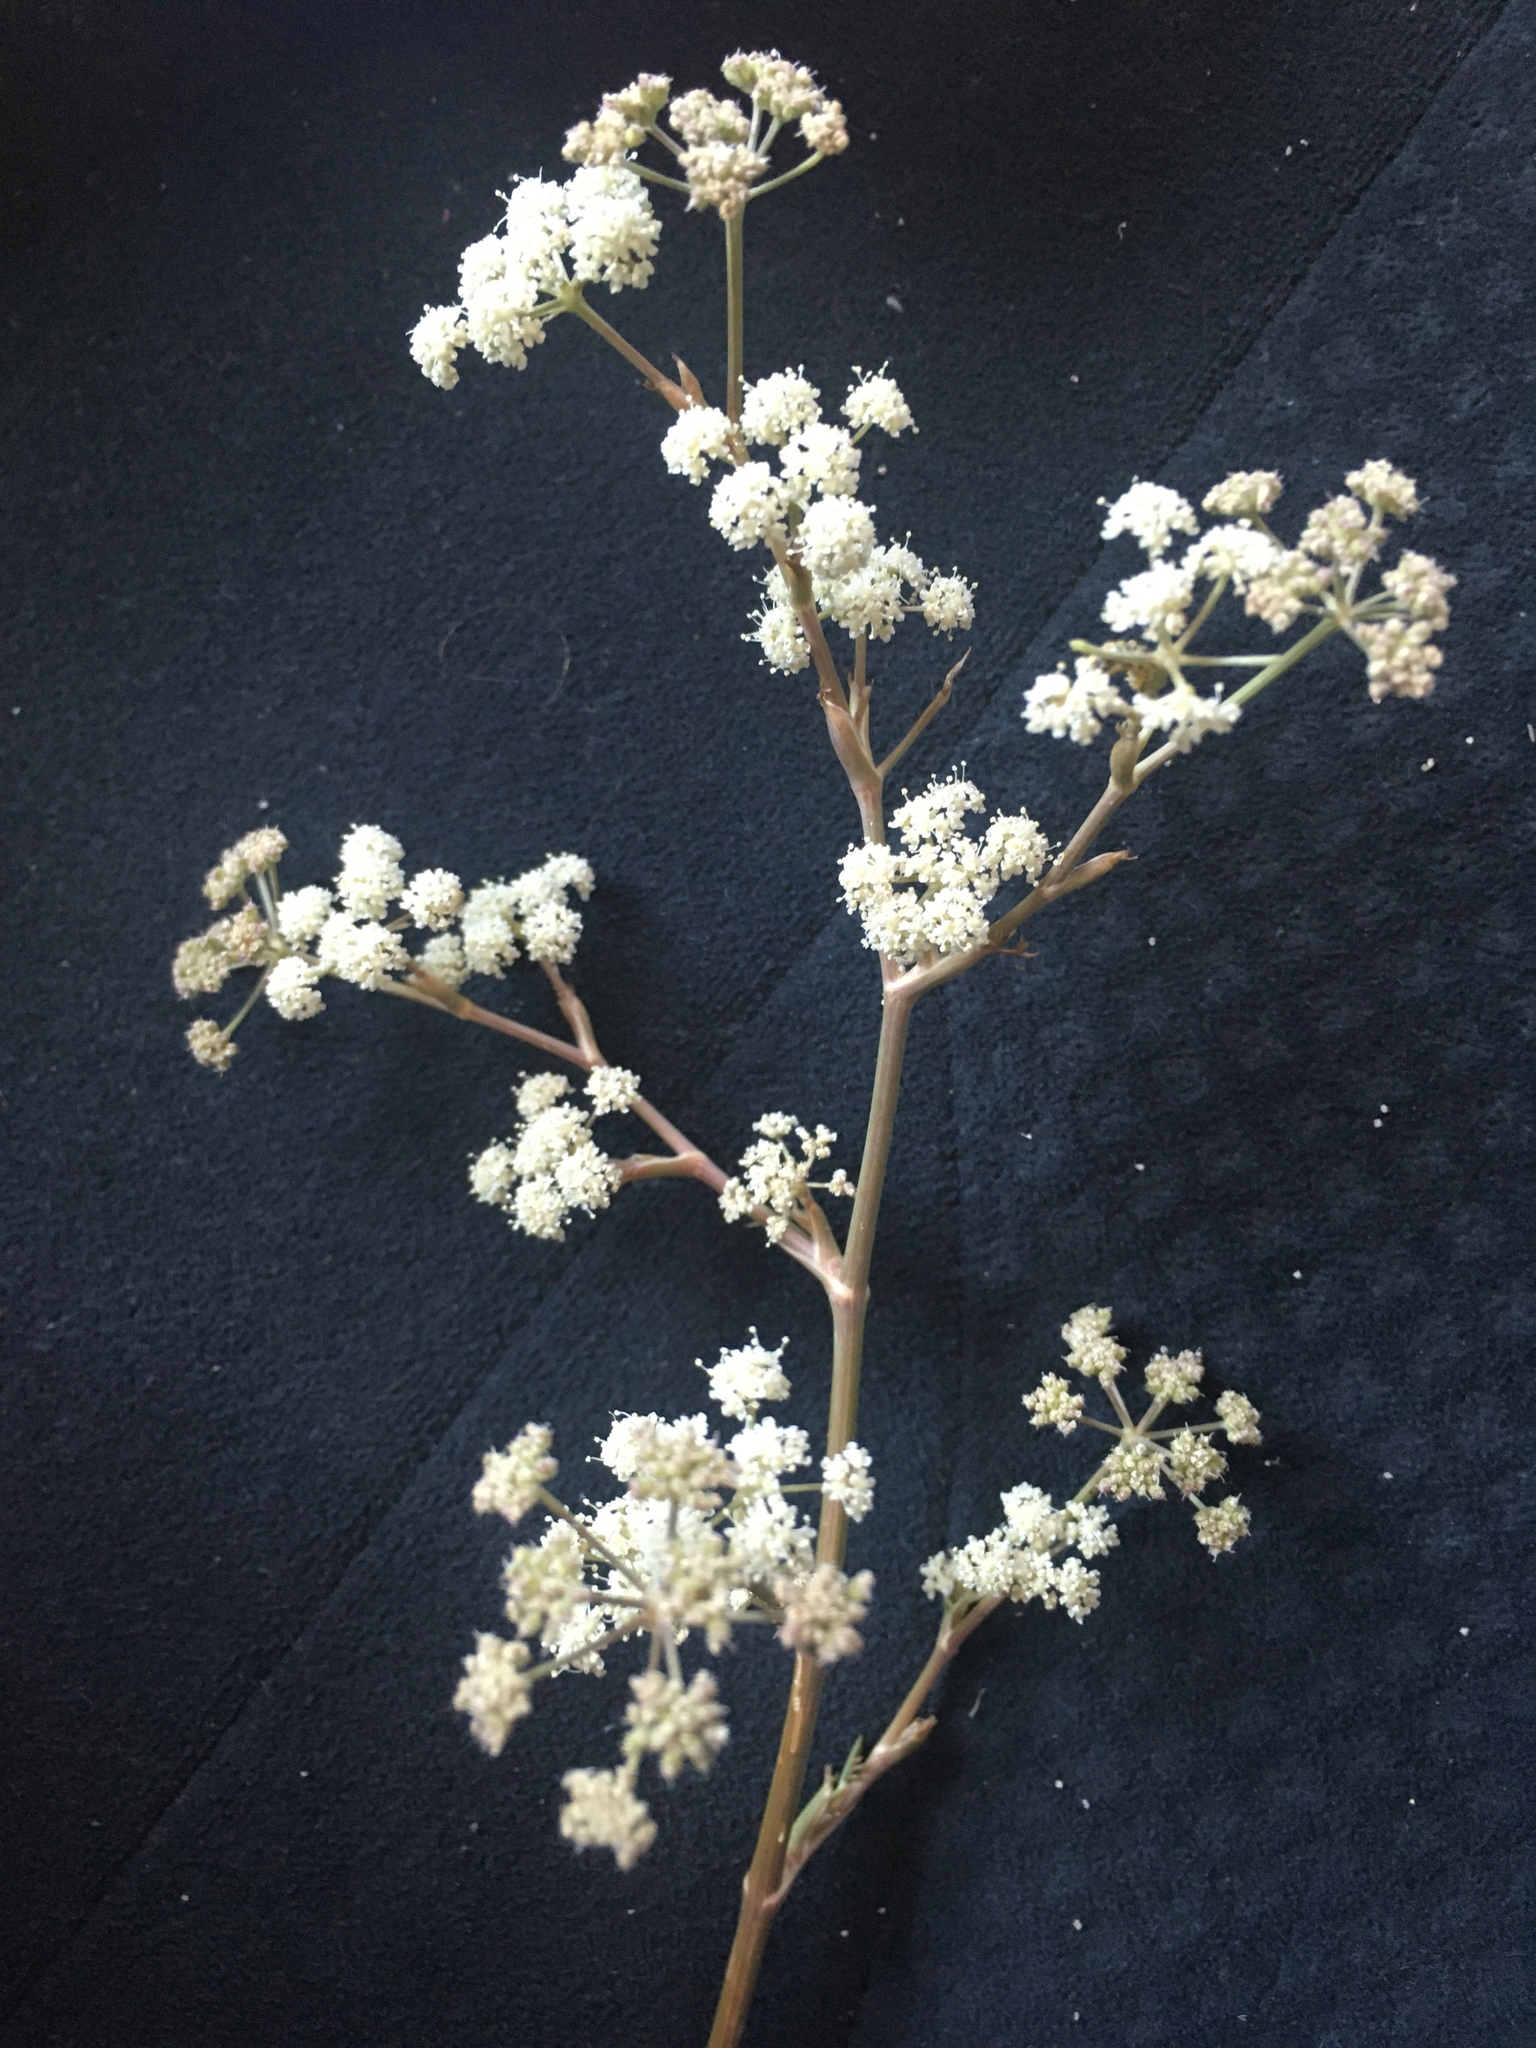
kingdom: Plantae
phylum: Tracheophyta
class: Magnoliopsida
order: Apiales
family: Apiaceae
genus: Seseli
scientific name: Seseli arenarium
